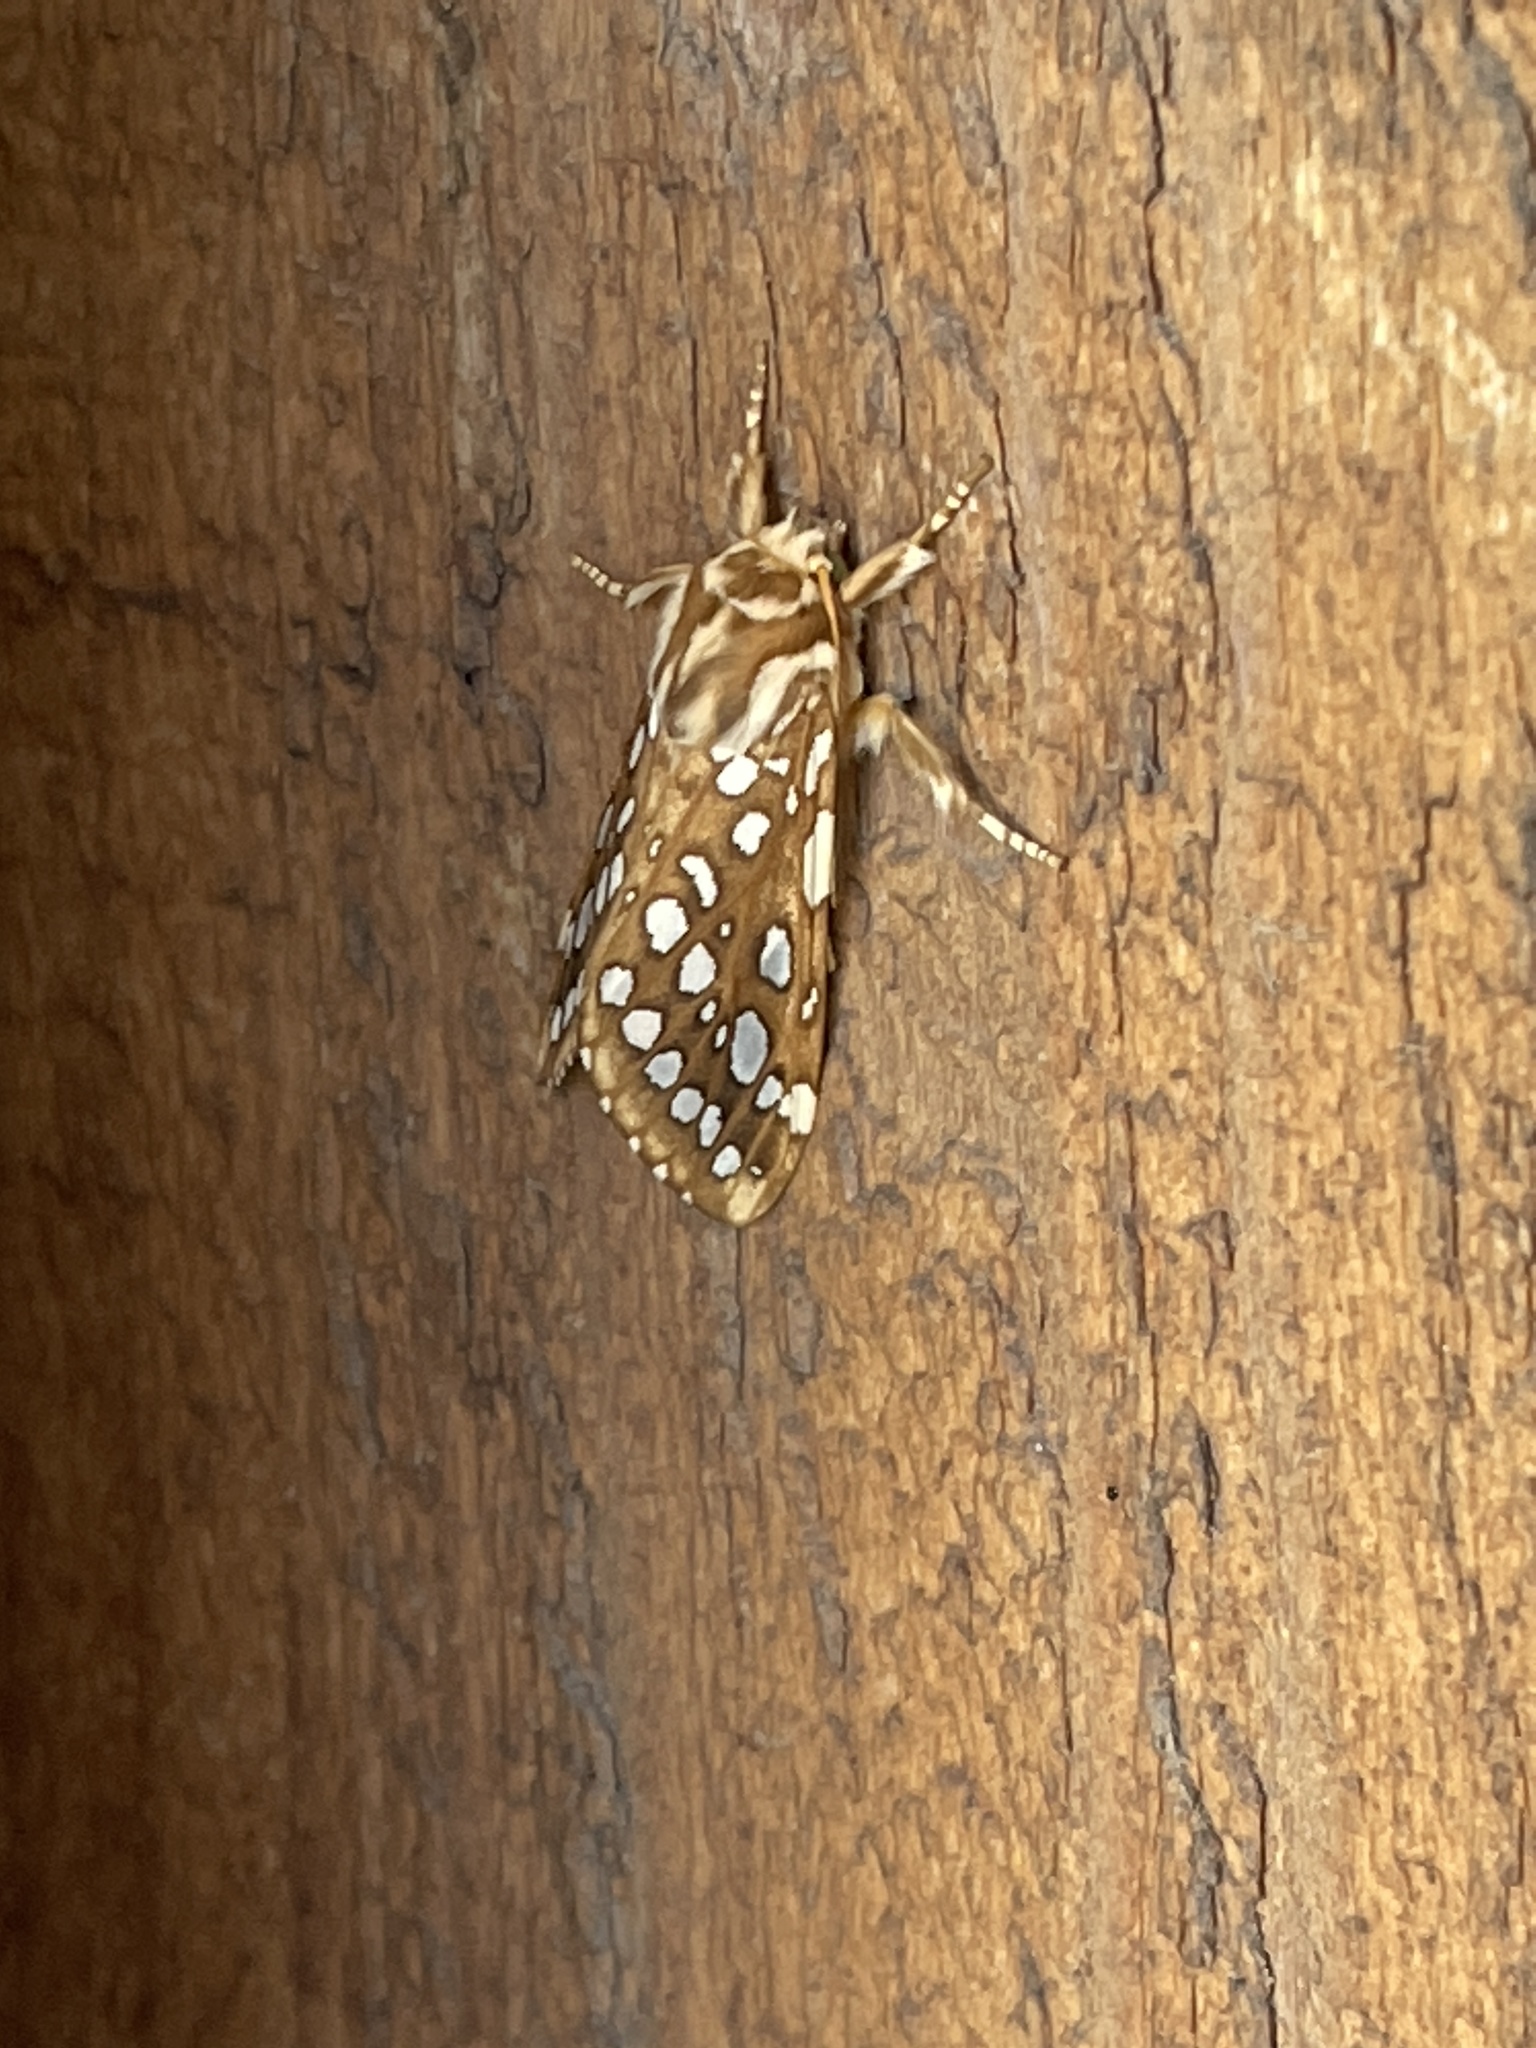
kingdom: Animalia
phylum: Arthropoda
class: Insecta
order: Lepidoptera
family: Erebidae
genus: Lophocampa
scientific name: Lophocampa argentata
